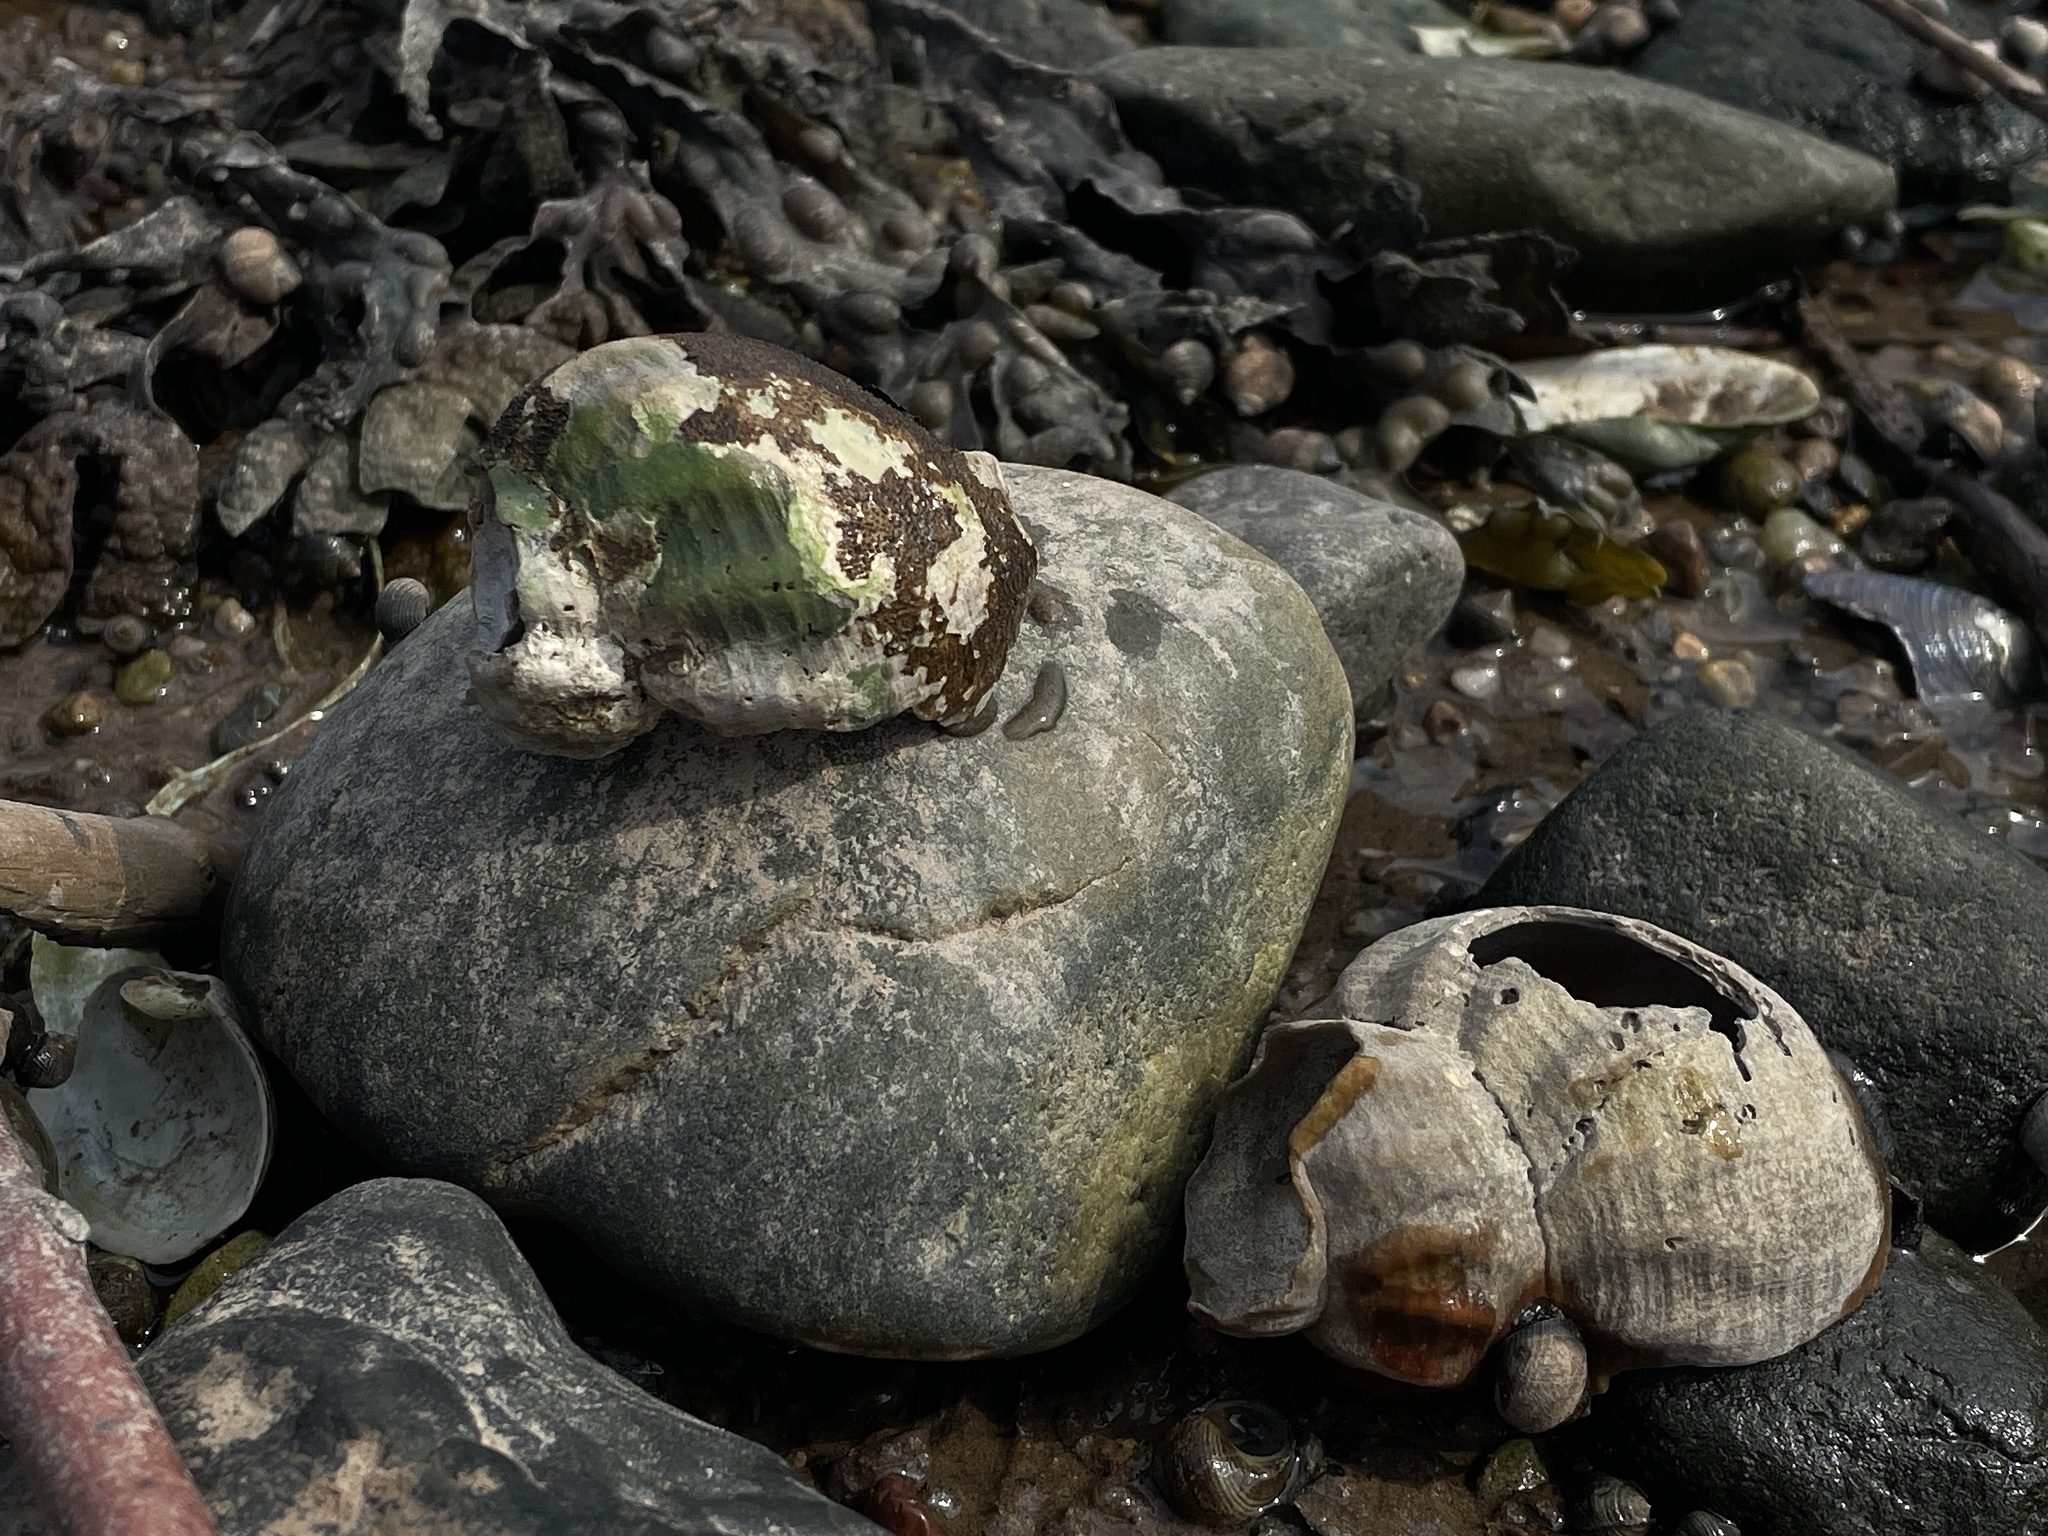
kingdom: Animalia
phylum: Mollusca
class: Gastropoda
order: Neogastropoda
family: Buccinidae
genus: Buccinum
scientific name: Buccinum undatum
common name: Common whelk
